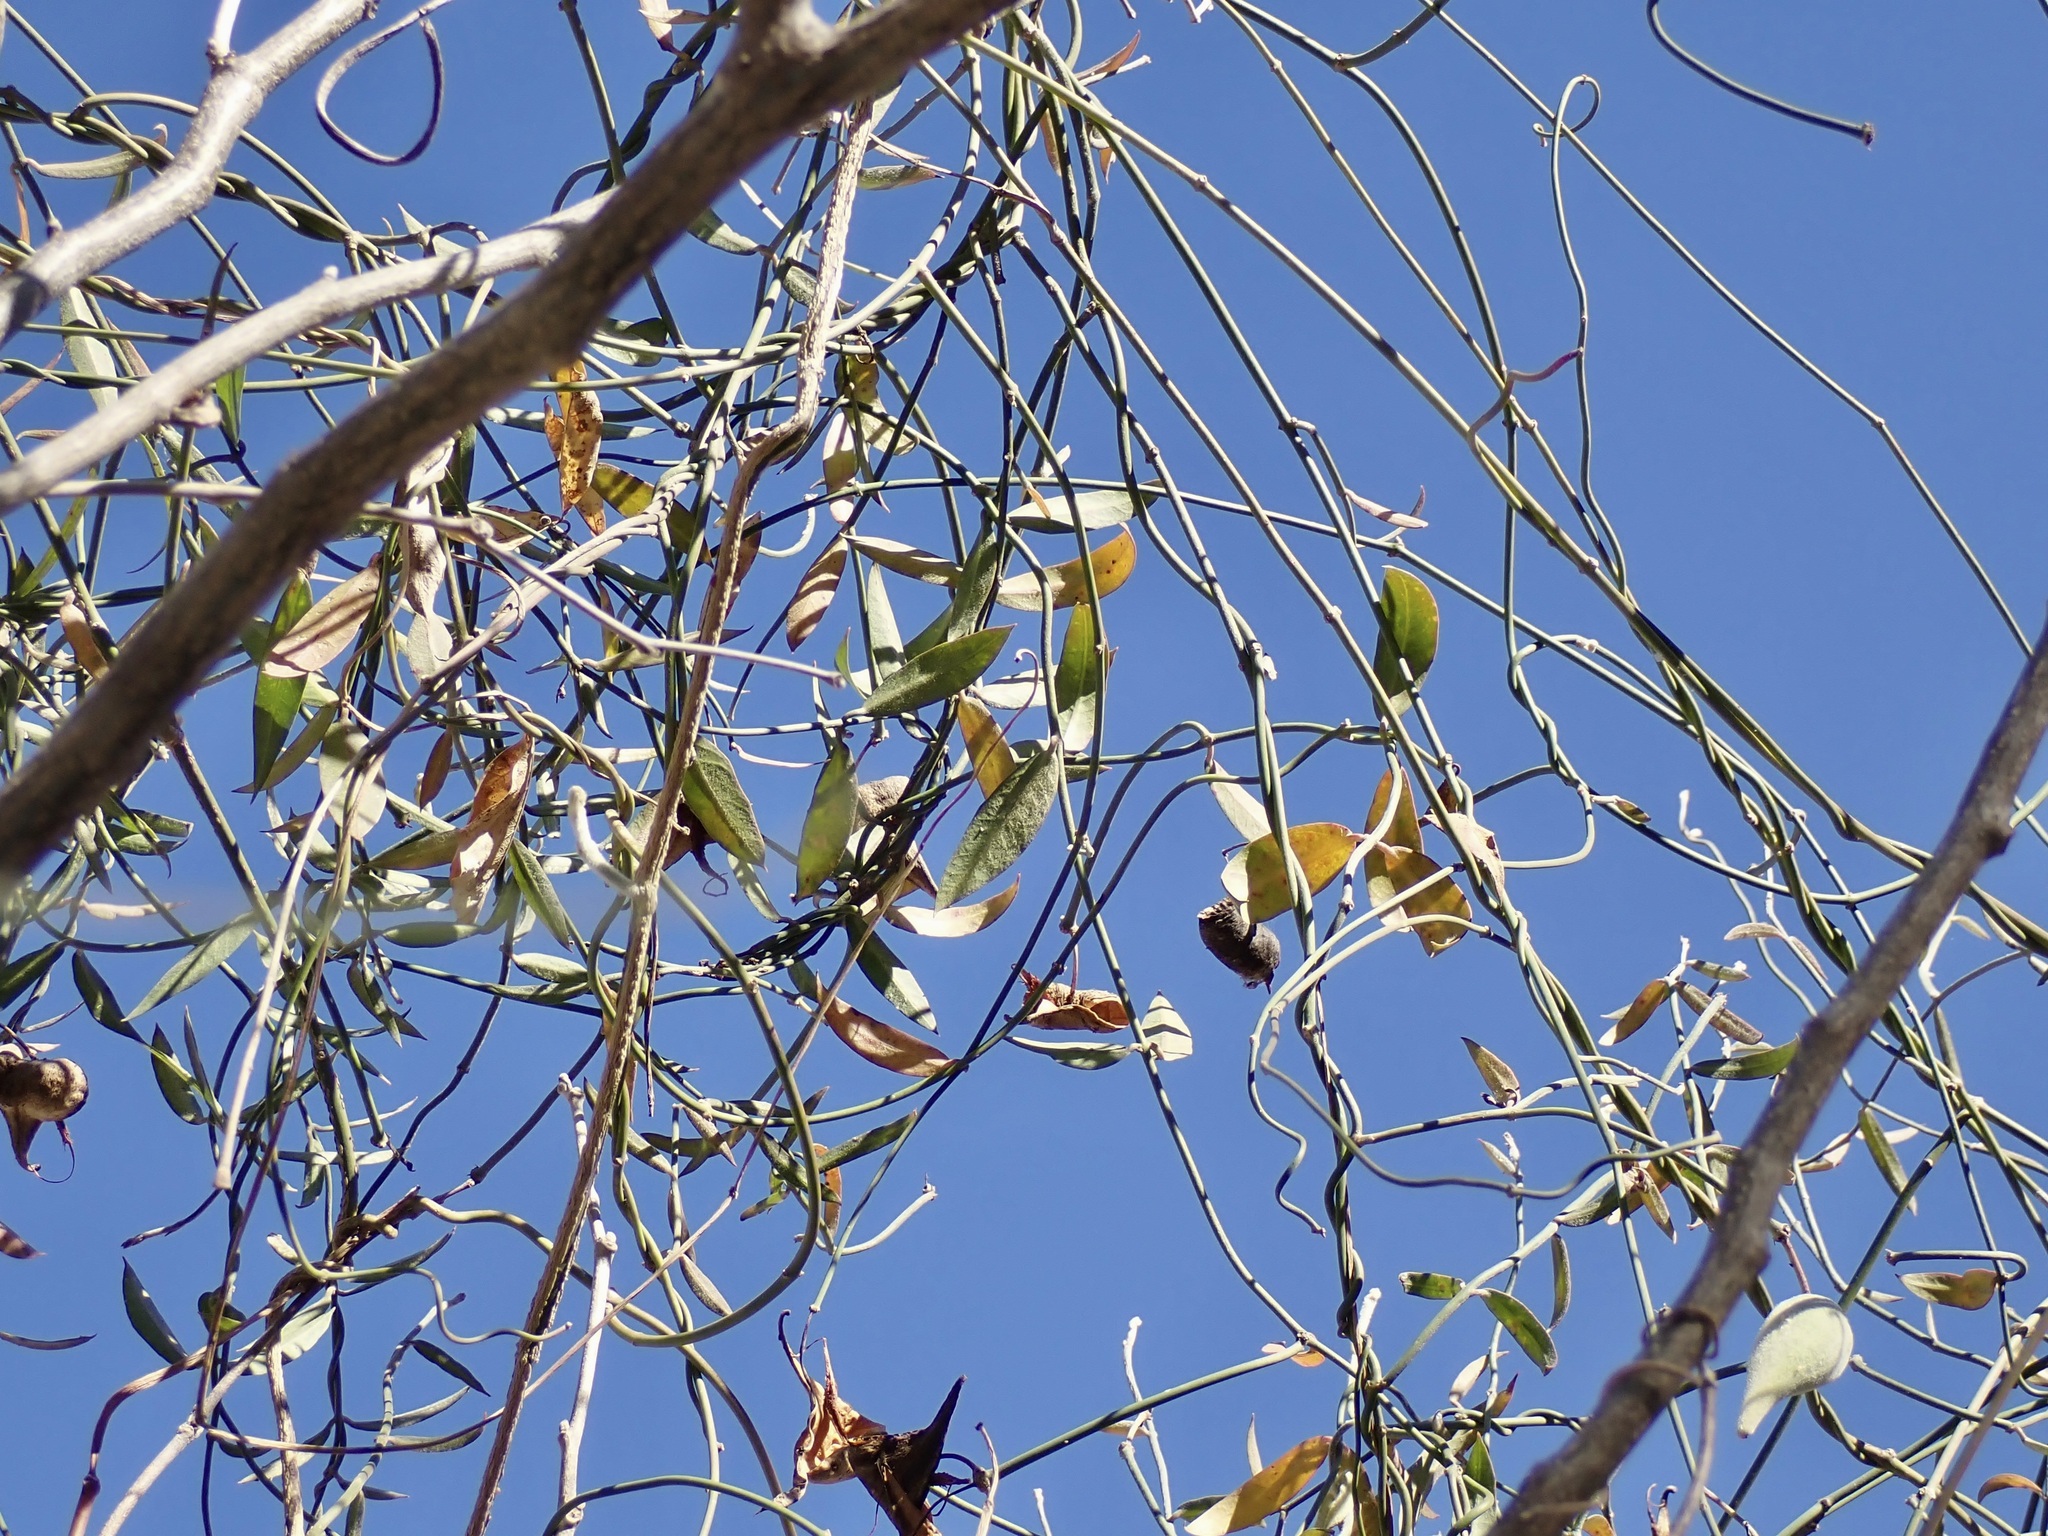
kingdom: Plantae
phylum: Tracheophyta
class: Magnoliopsida
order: Gentianales
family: Apocynaceae
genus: Funastrum
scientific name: Funastrum clausum
